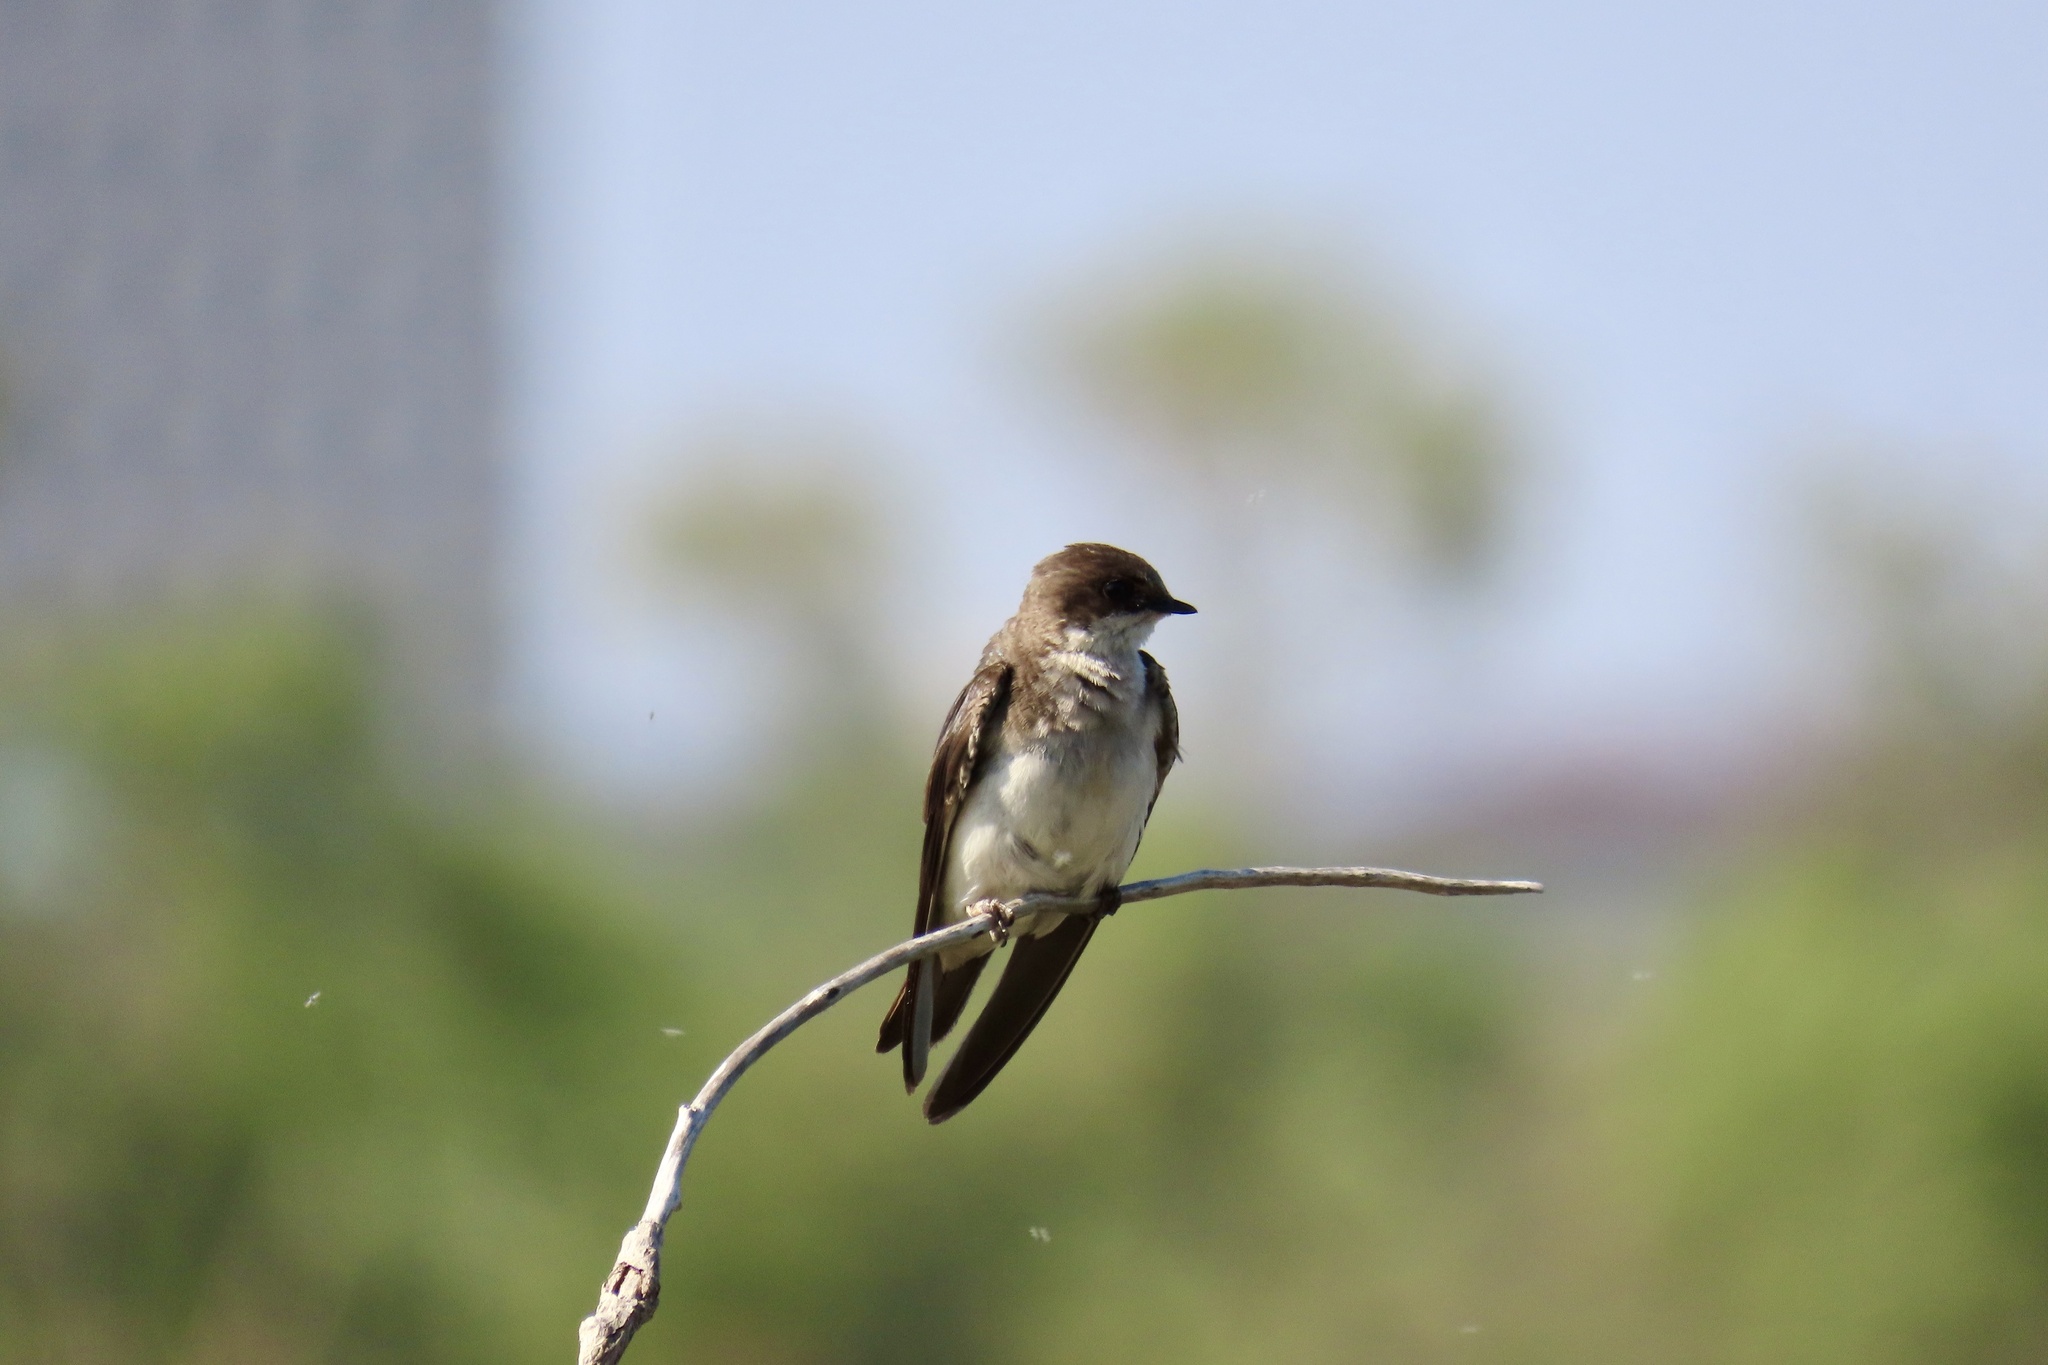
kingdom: Animalia
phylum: Chordata
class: Aves
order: Passeriformes
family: Hirundinidae
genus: Tachycineta
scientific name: Tachycineta bicolor
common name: Tree swallow
